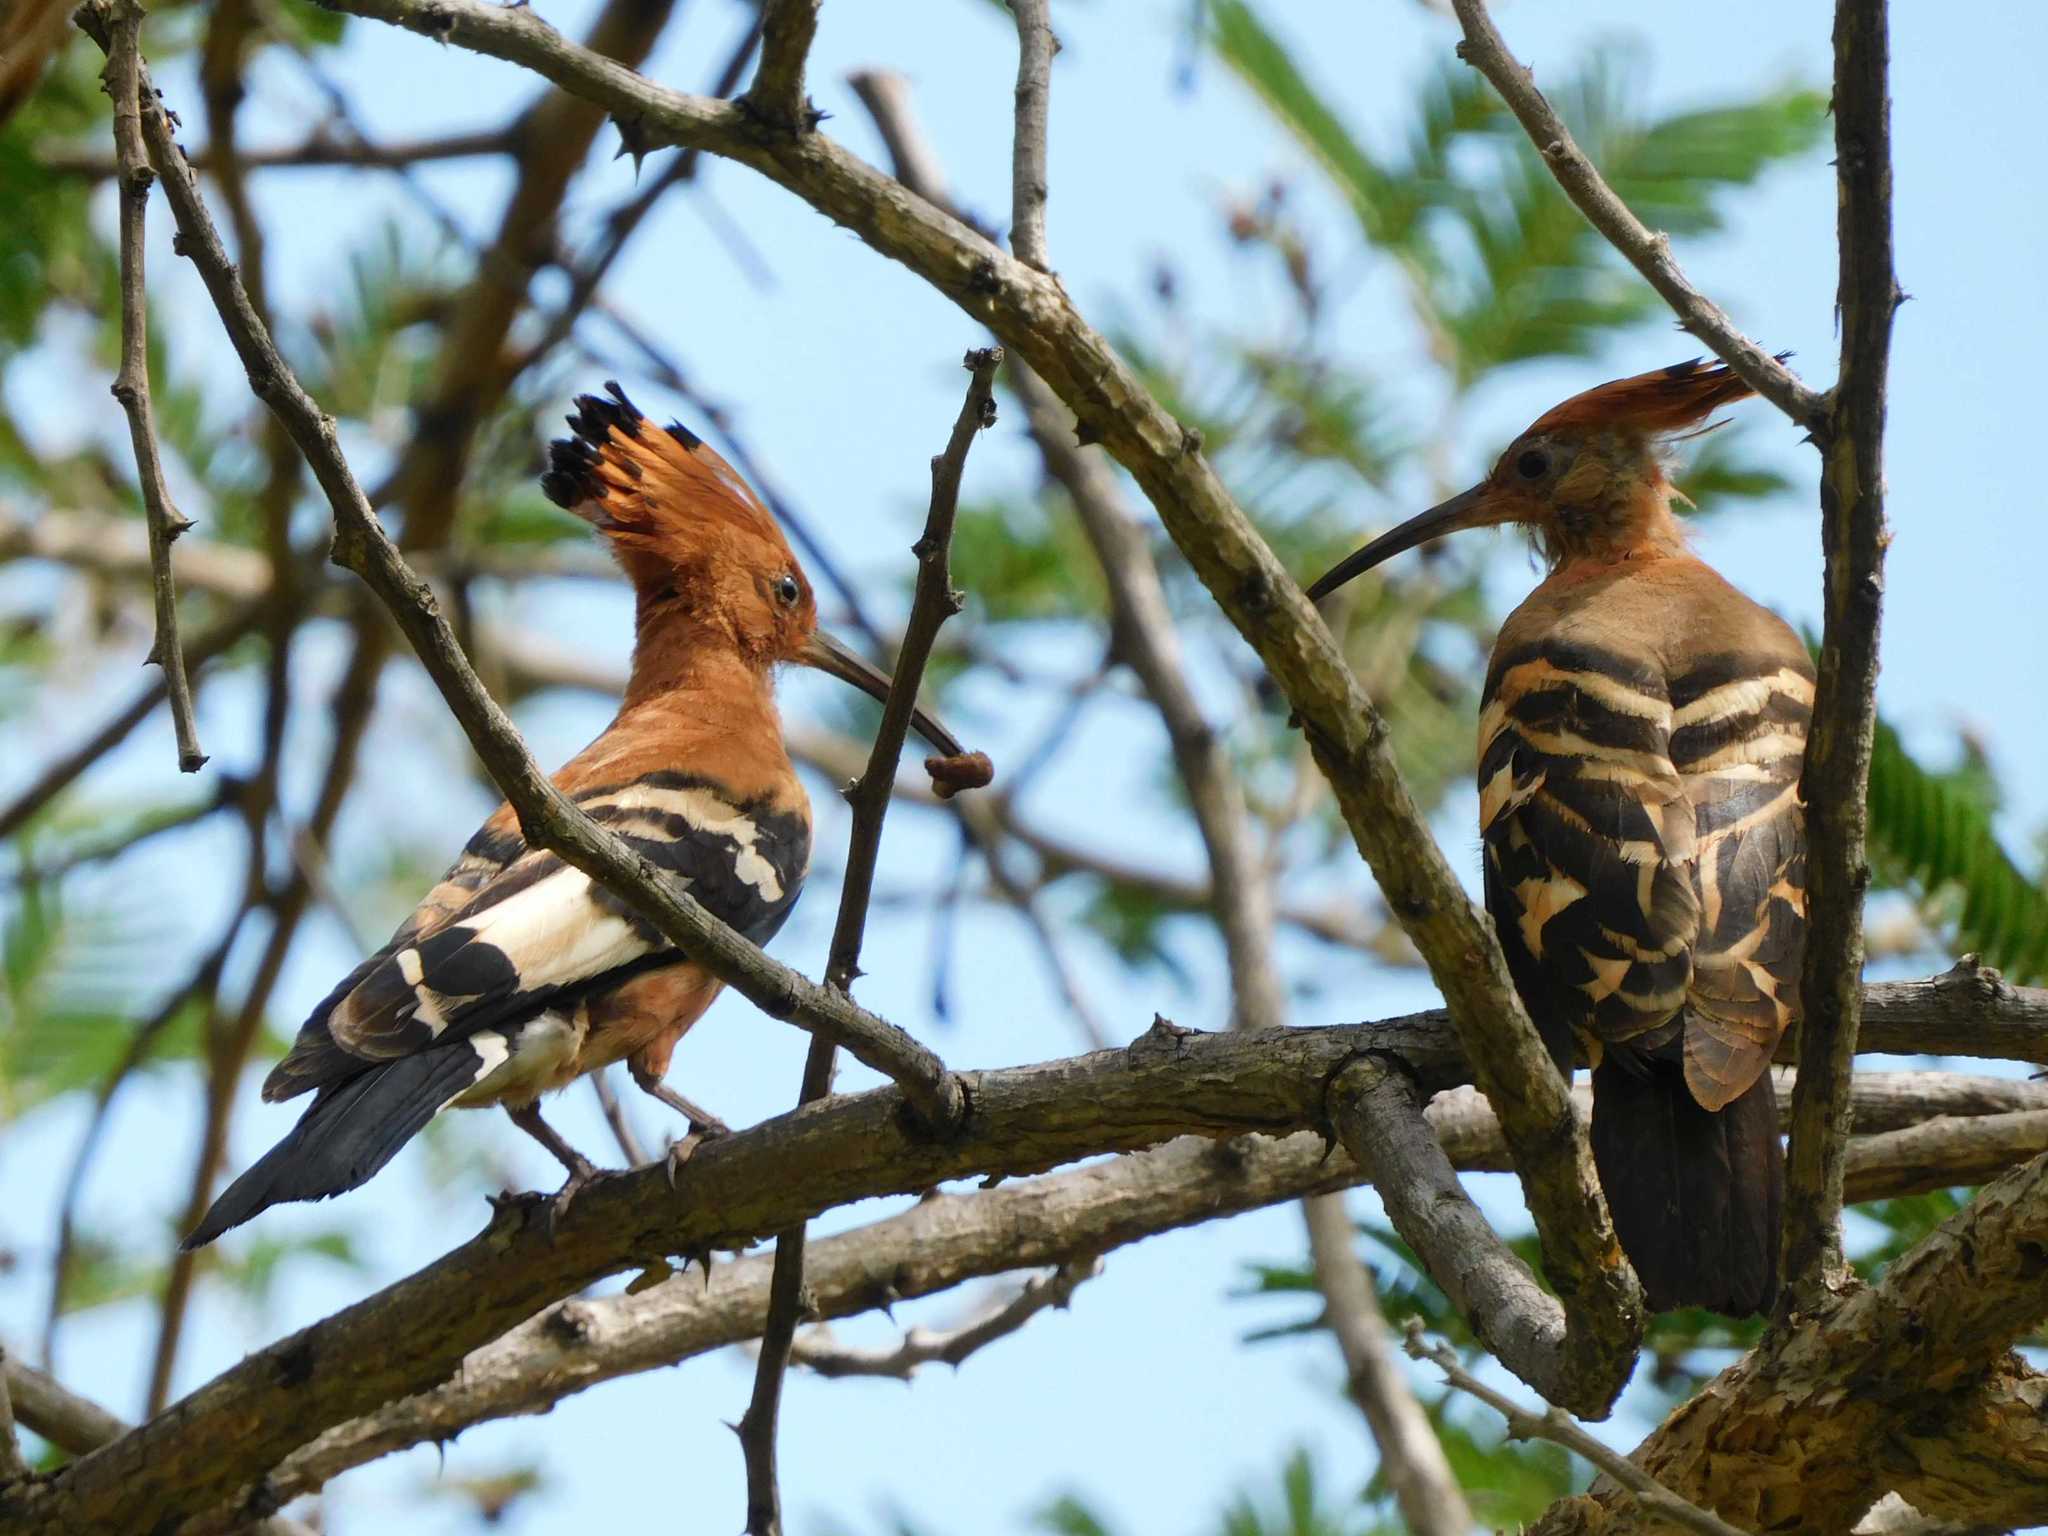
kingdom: Animalia
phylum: Chordata
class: Aves
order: Bucerotiformes
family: Upupidae
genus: Upupa
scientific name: Upupa africana
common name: African hoopoe
